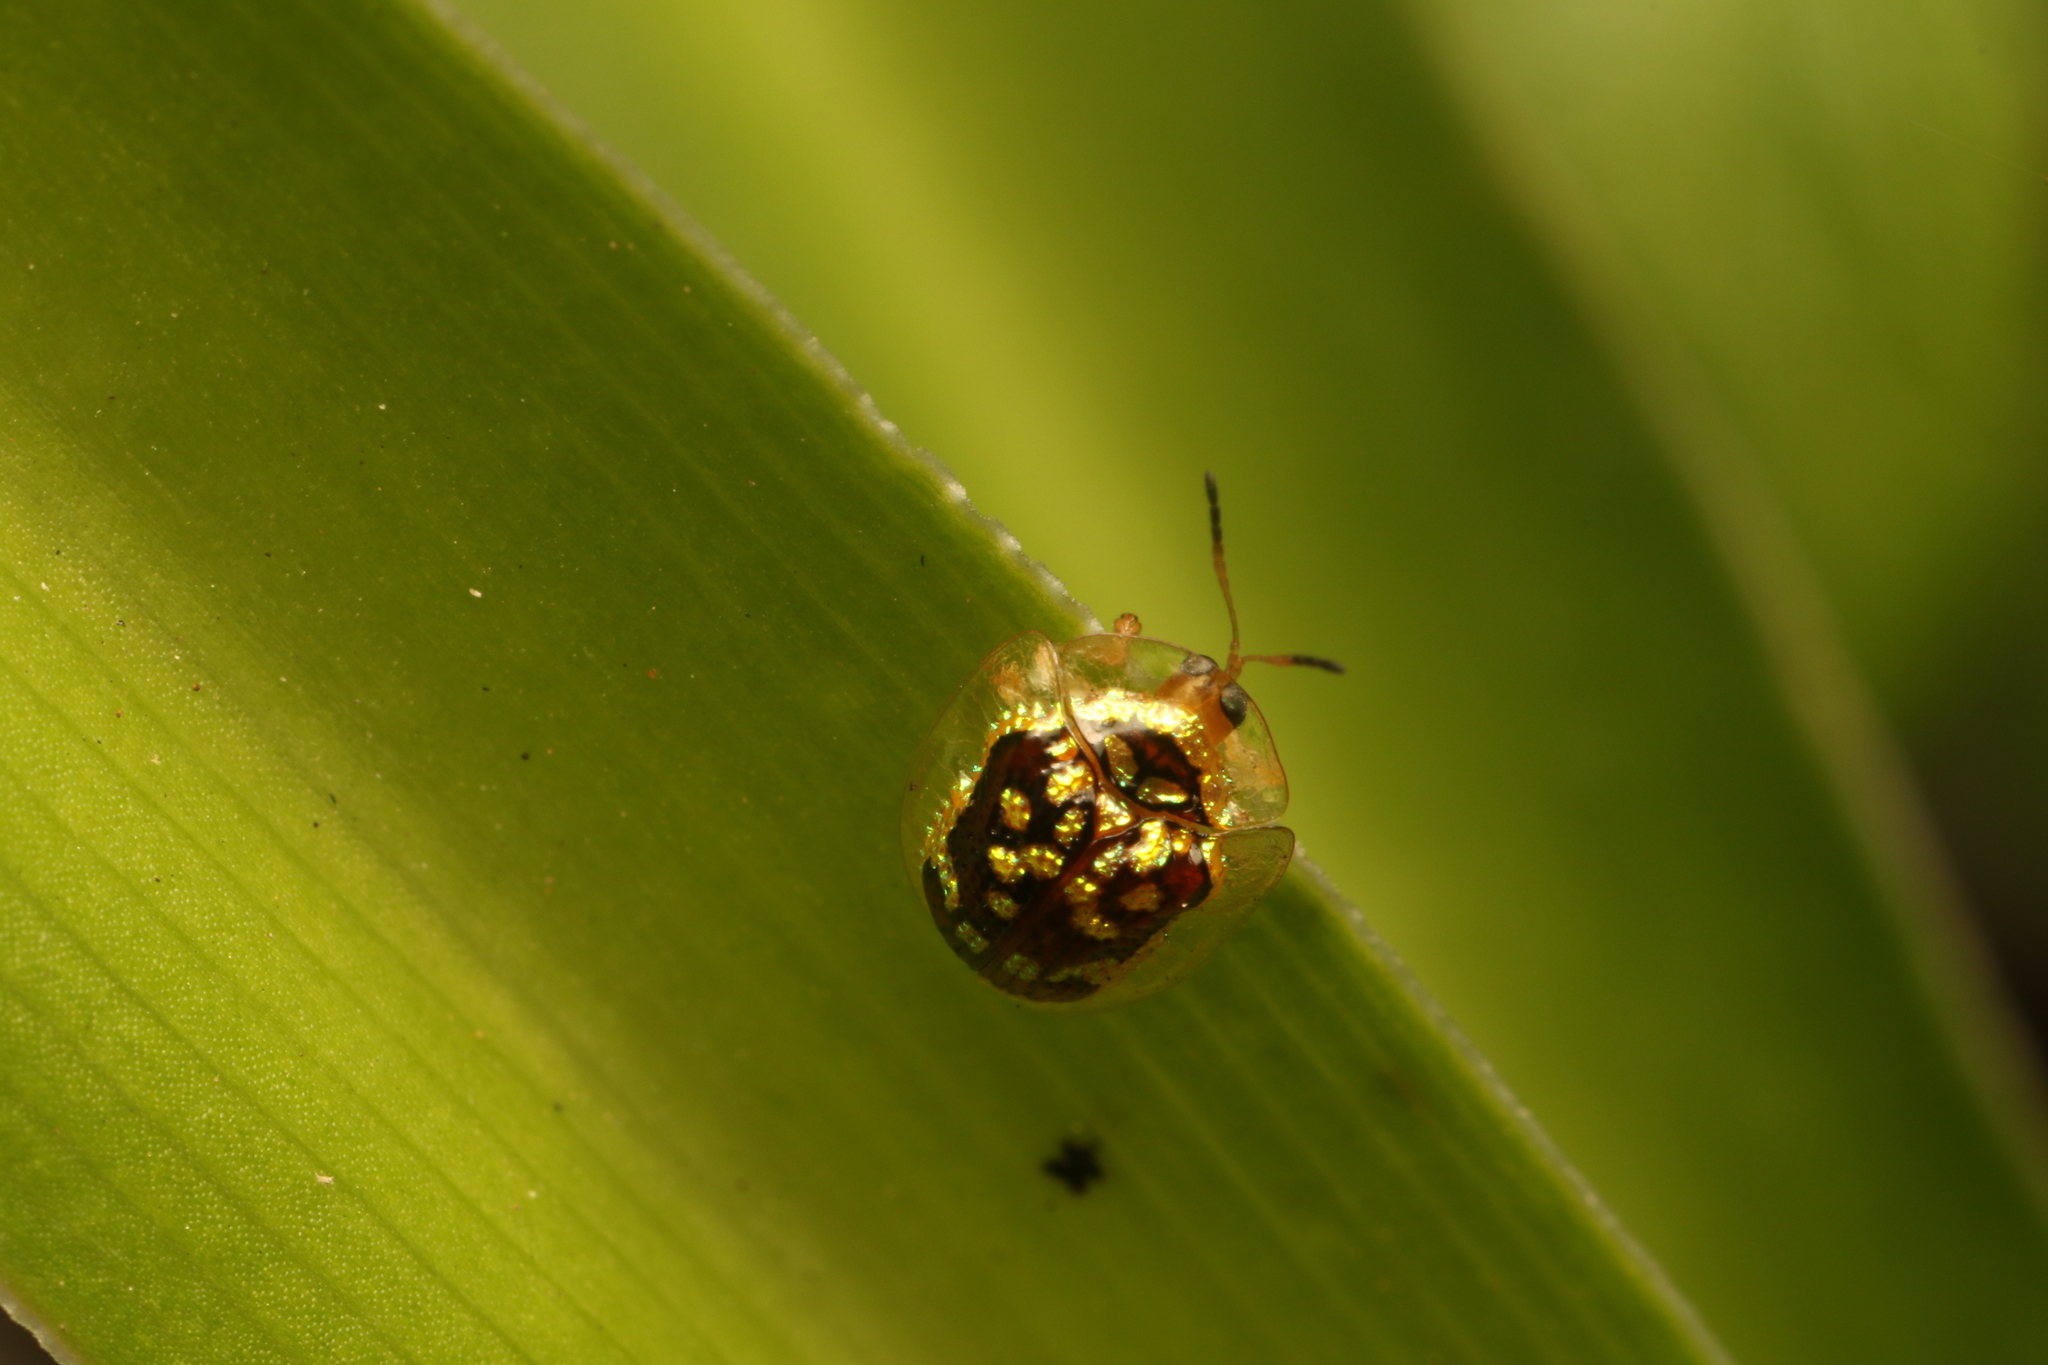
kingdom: Animalia
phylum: Arthropoda
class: Insecta
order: Coleoptera
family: Chrysomelidae
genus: Microctenochira
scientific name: Microctenochira brasiliensis
